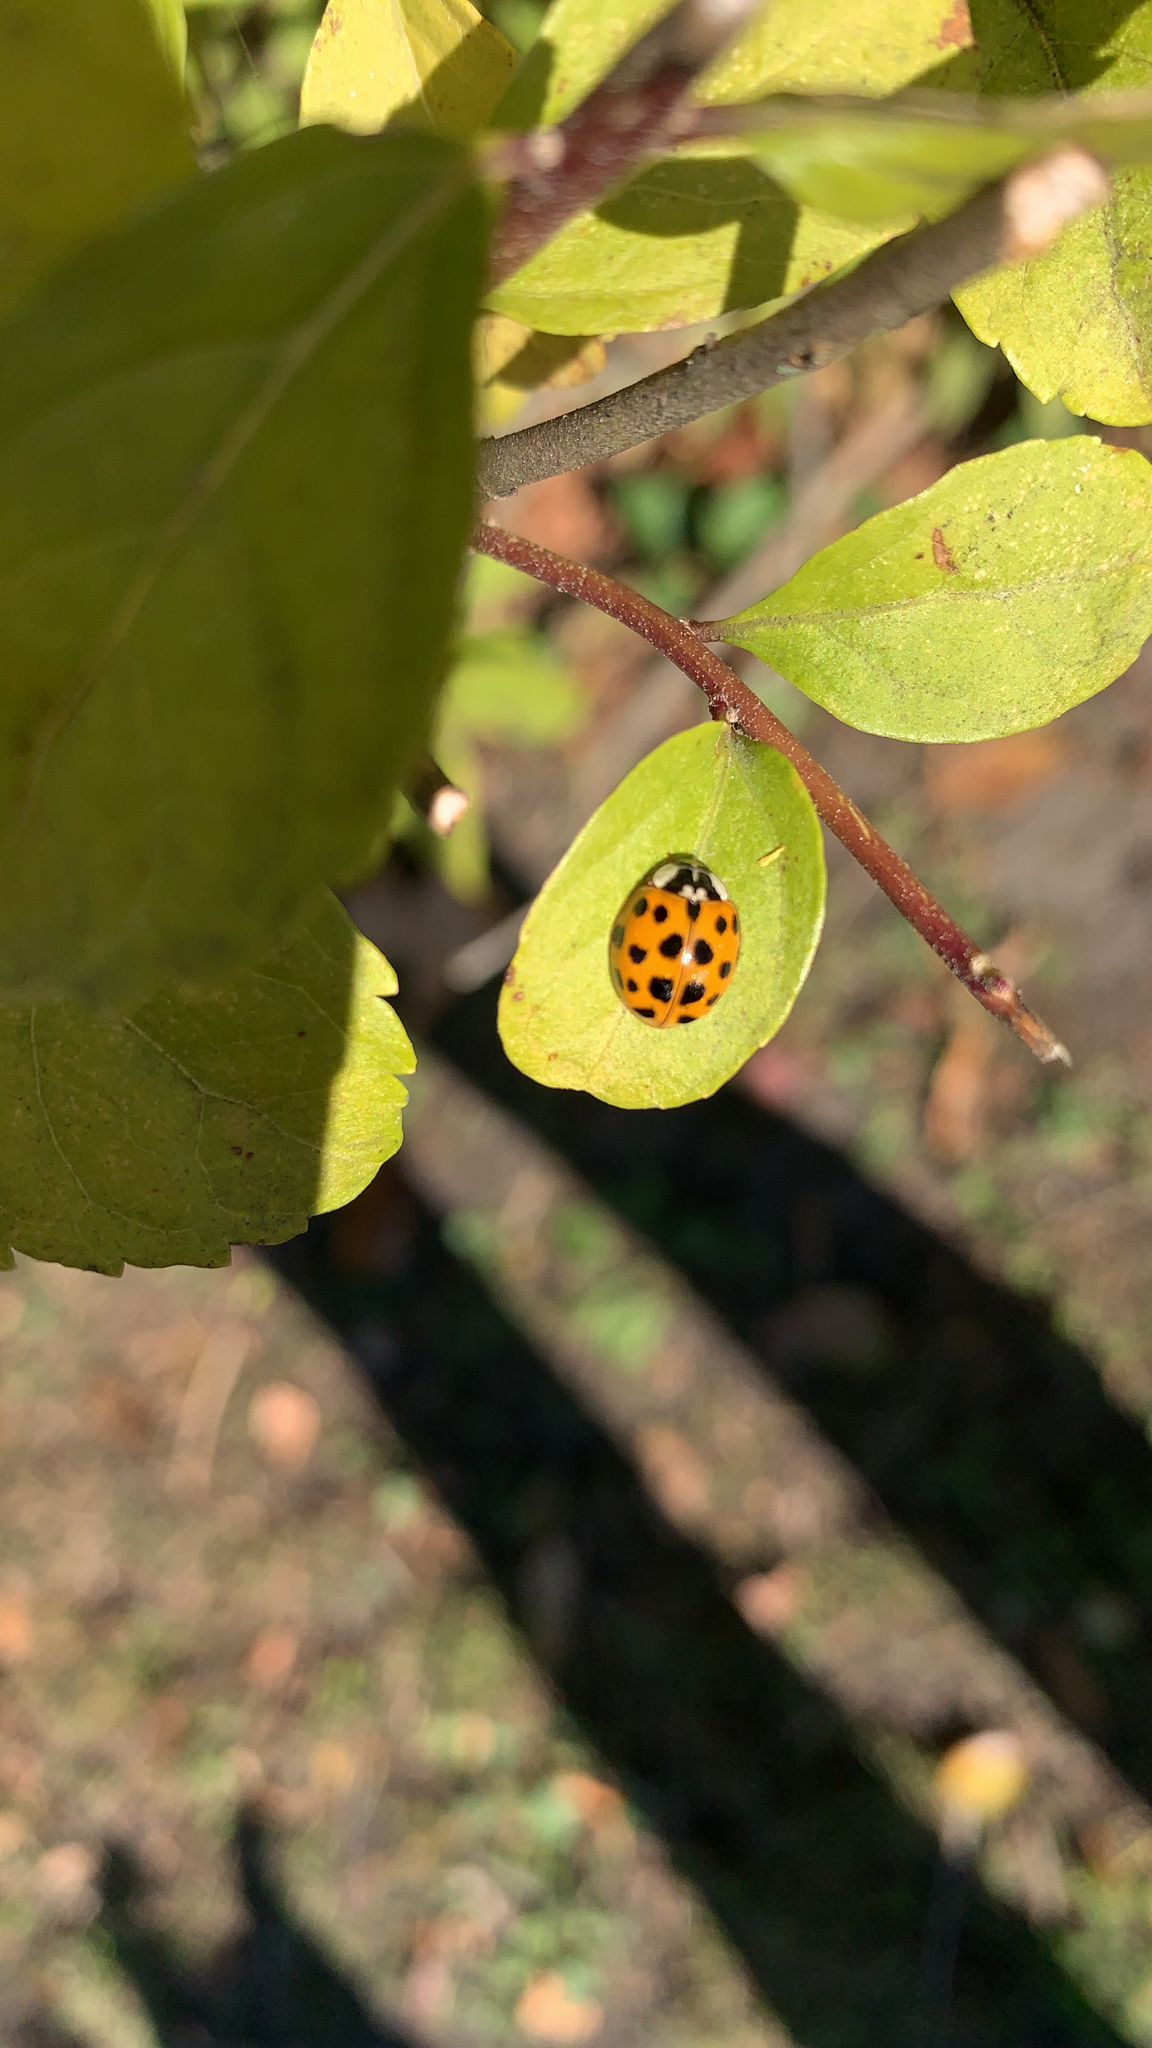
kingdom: Animalia
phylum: Arthropoda
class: Insecta
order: Coleoptera
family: Coccinellidae
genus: Harmonia
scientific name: Harmonia axyridis
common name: Harlequin ladybird
